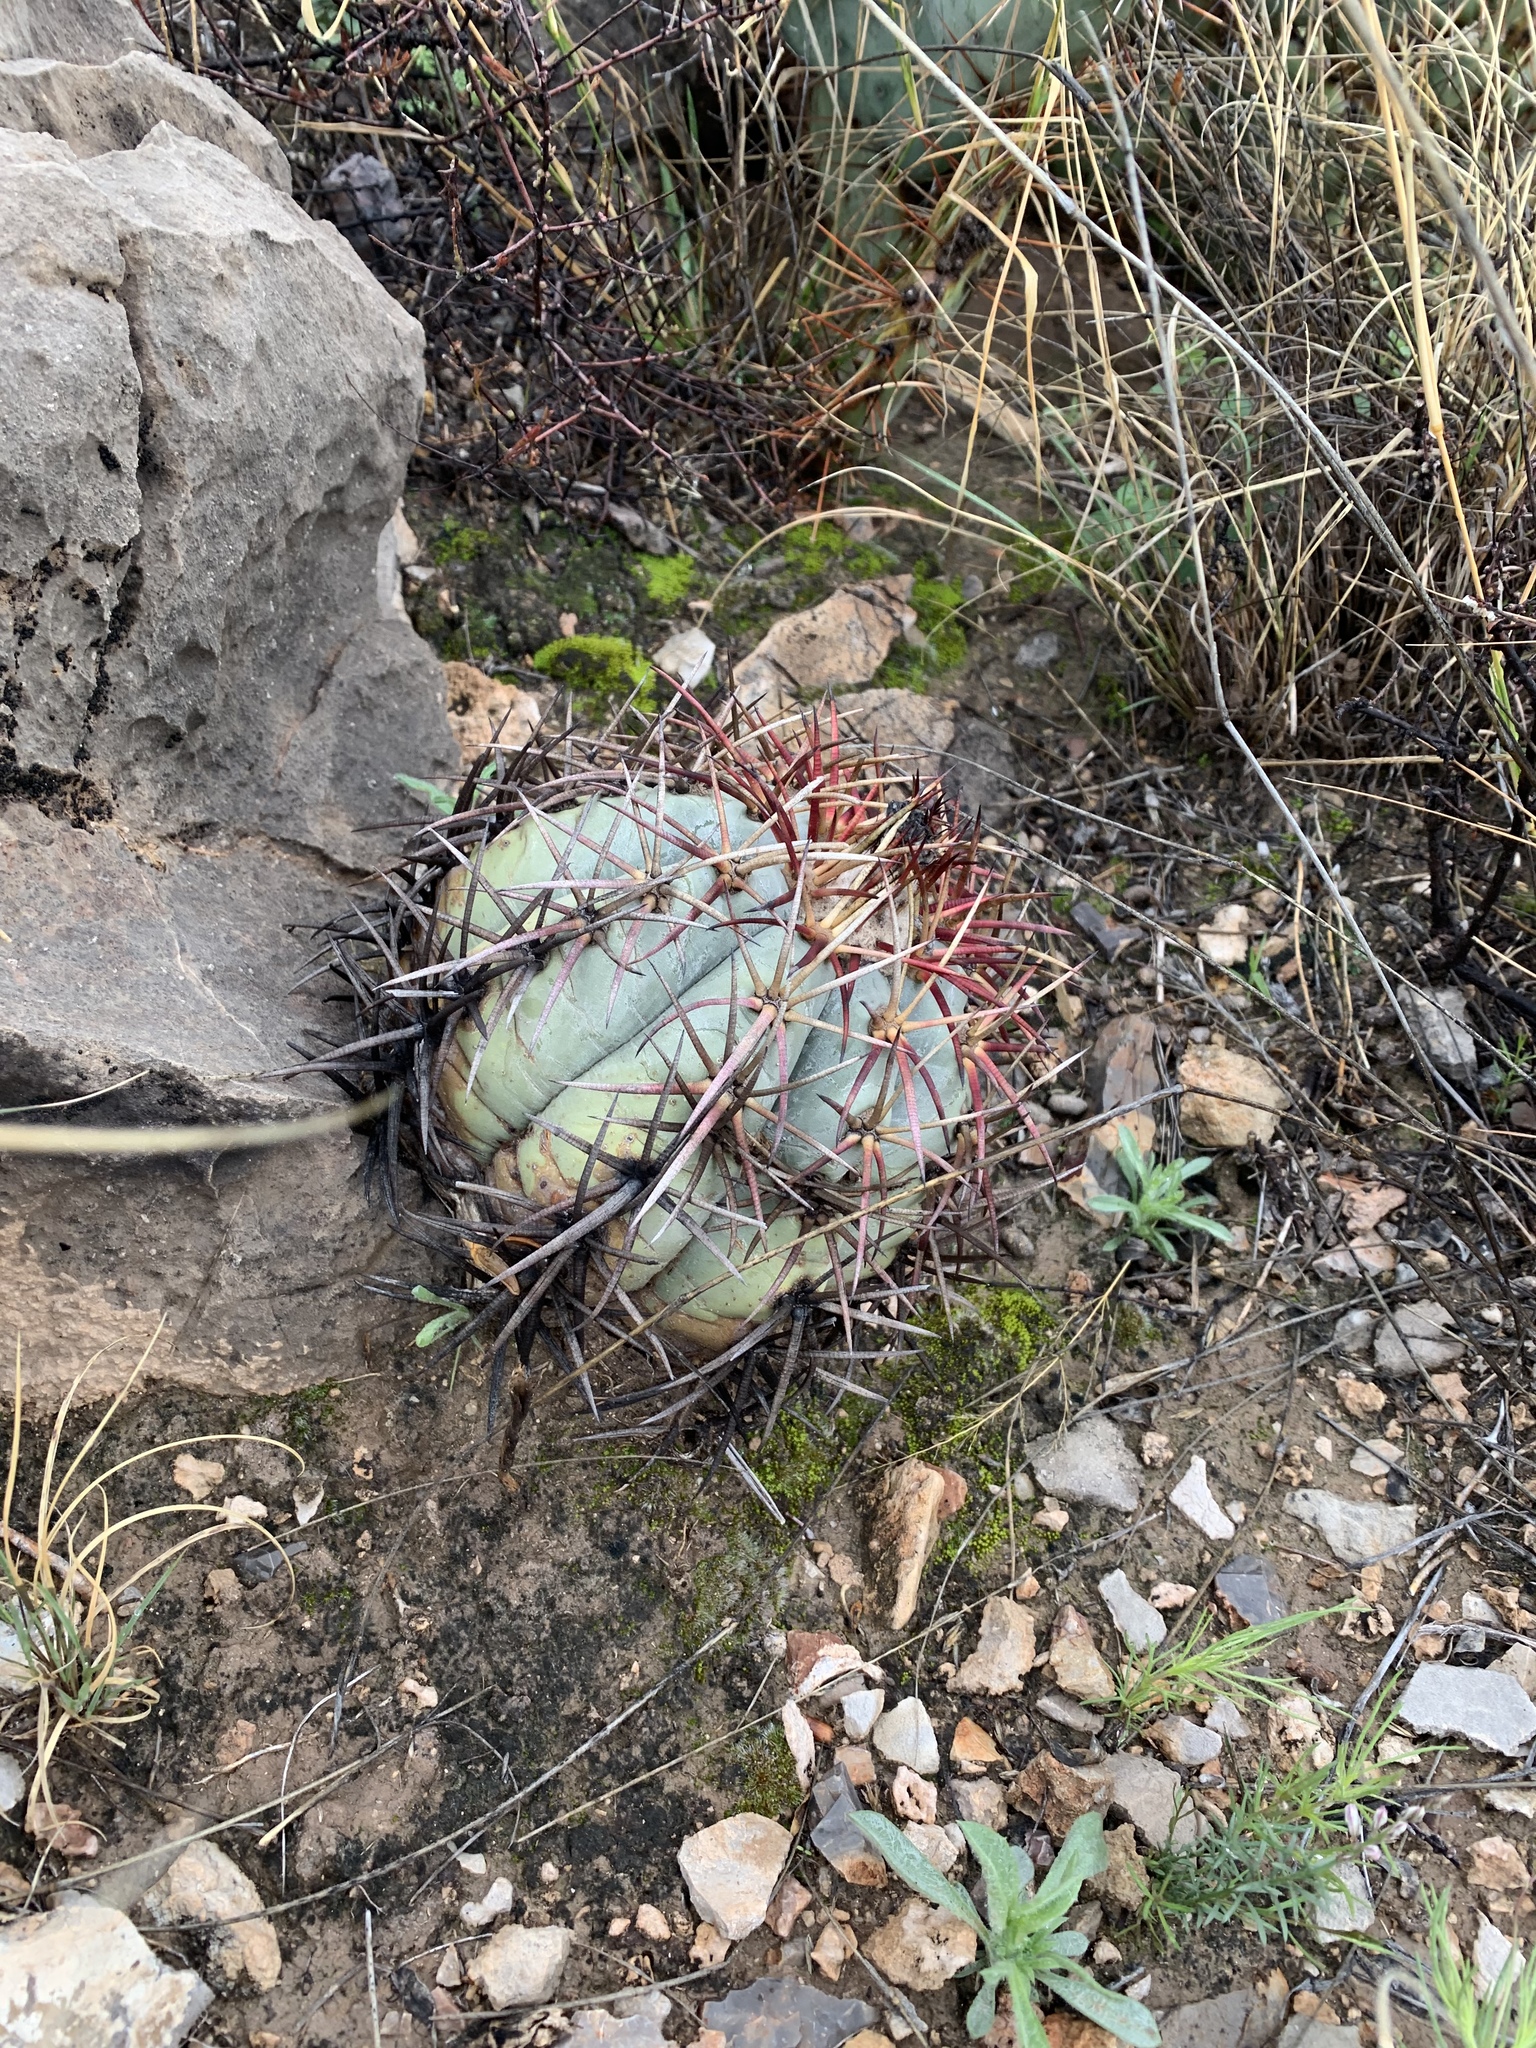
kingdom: Plantae
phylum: Tracheophyta
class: Magnoliopsida
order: Caryophyllales
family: Cactaceae
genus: Echinocactus
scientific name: Echinocactus horizonthalonius
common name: Devilshead
